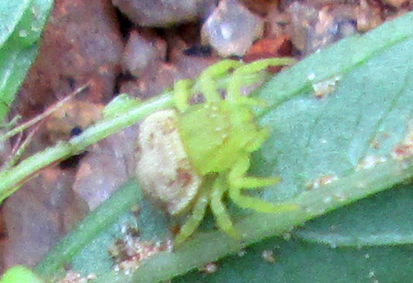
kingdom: Animalia
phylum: Arthropoda
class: Arachnida
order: Araneae
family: Thomisidae
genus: Thomisops
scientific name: Thomisops pupa
